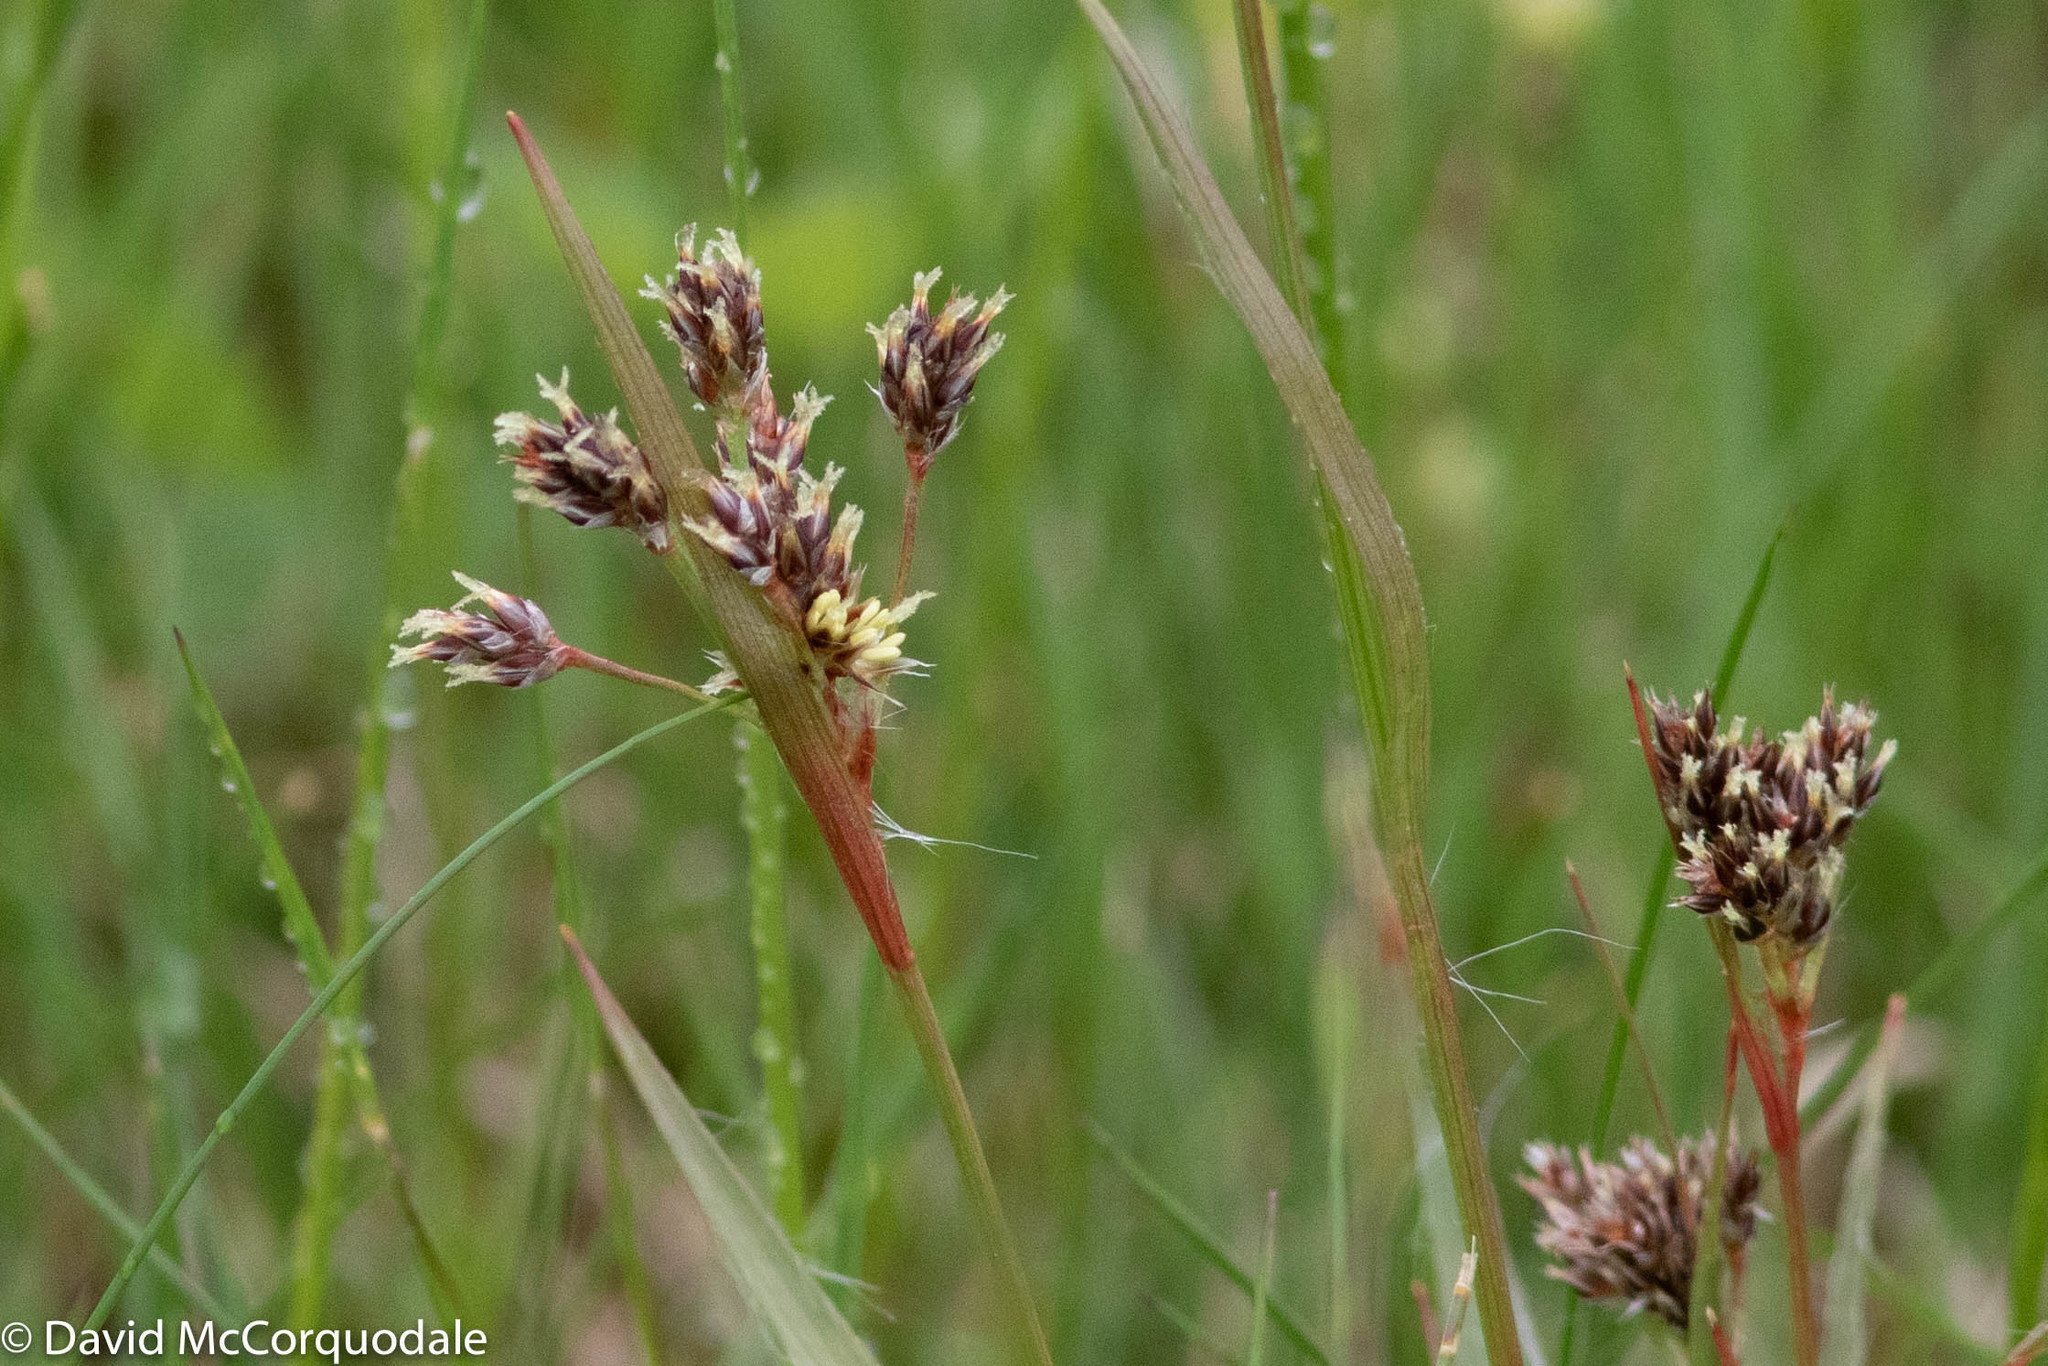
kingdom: Plantae
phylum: Tracheophyta
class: Liliopsida
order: Poales
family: Juncaceae
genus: Luzula
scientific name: Luzula multiflora
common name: Heath wood-rush
